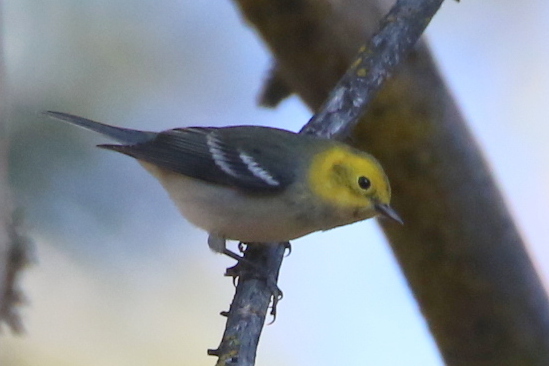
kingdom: Animalia
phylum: Chordata
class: Aves
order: Passeriformes
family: Parulidae
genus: Setophaga
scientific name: Setophaga occidentalis
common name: Hermit warbler
